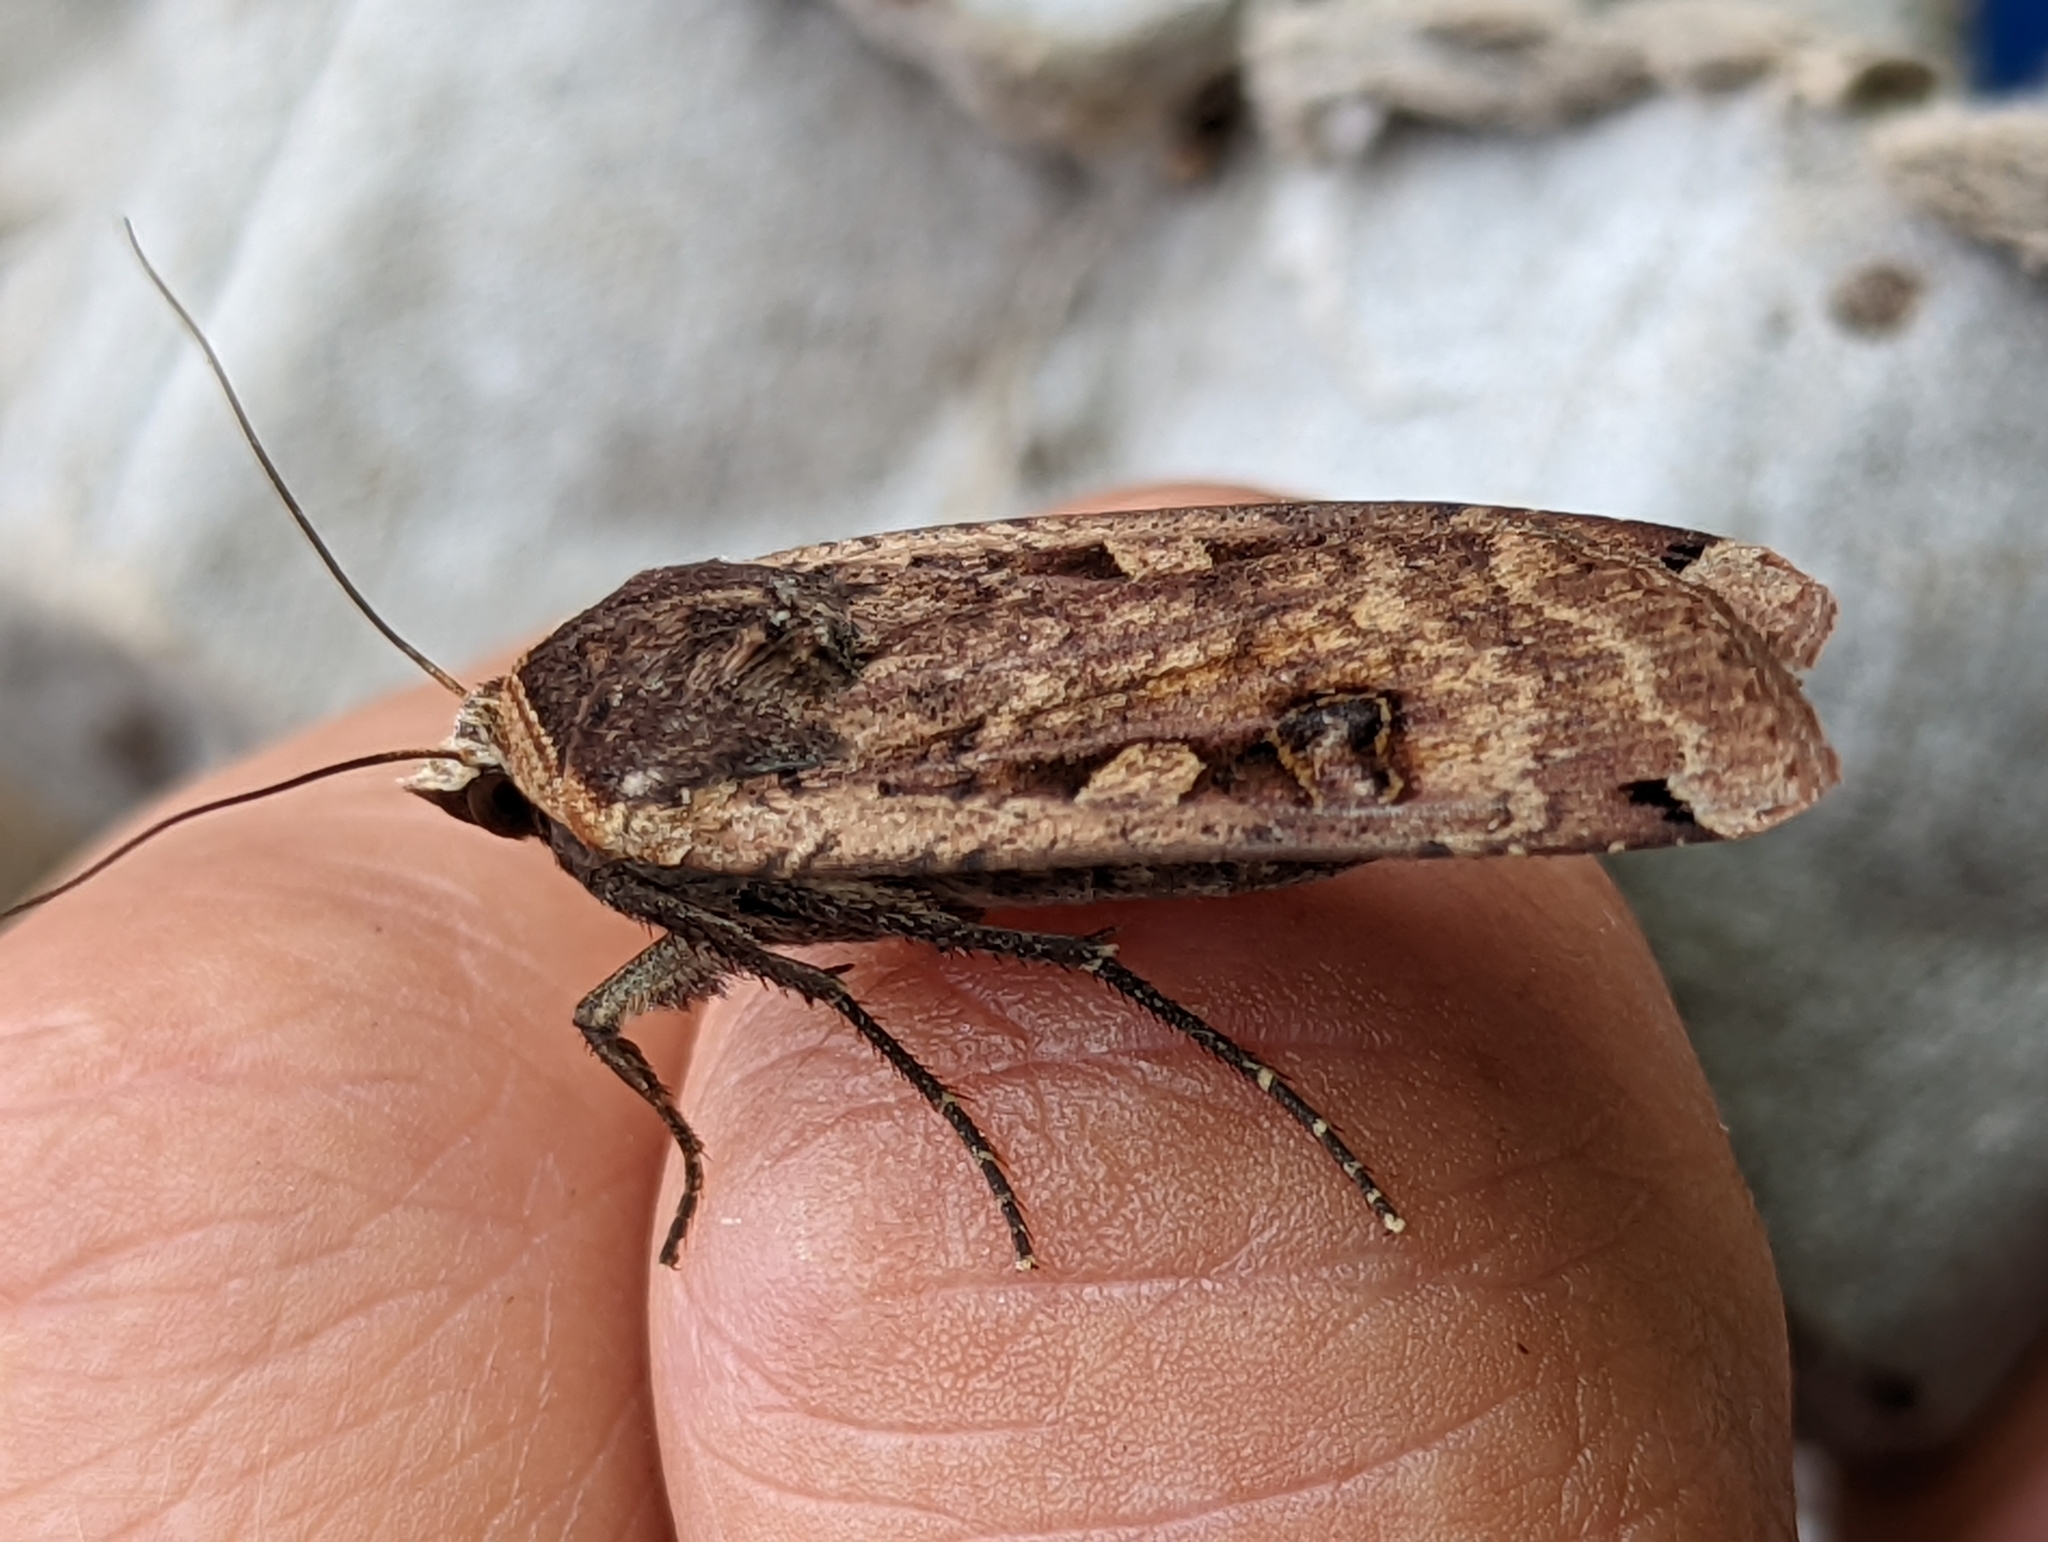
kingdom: Animalia
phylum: Arthropoda
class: Insecta
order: Lepidoptera
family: Noctuidae
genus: Noctua
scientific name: Noctua pronuba
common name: Large yellow underwing
